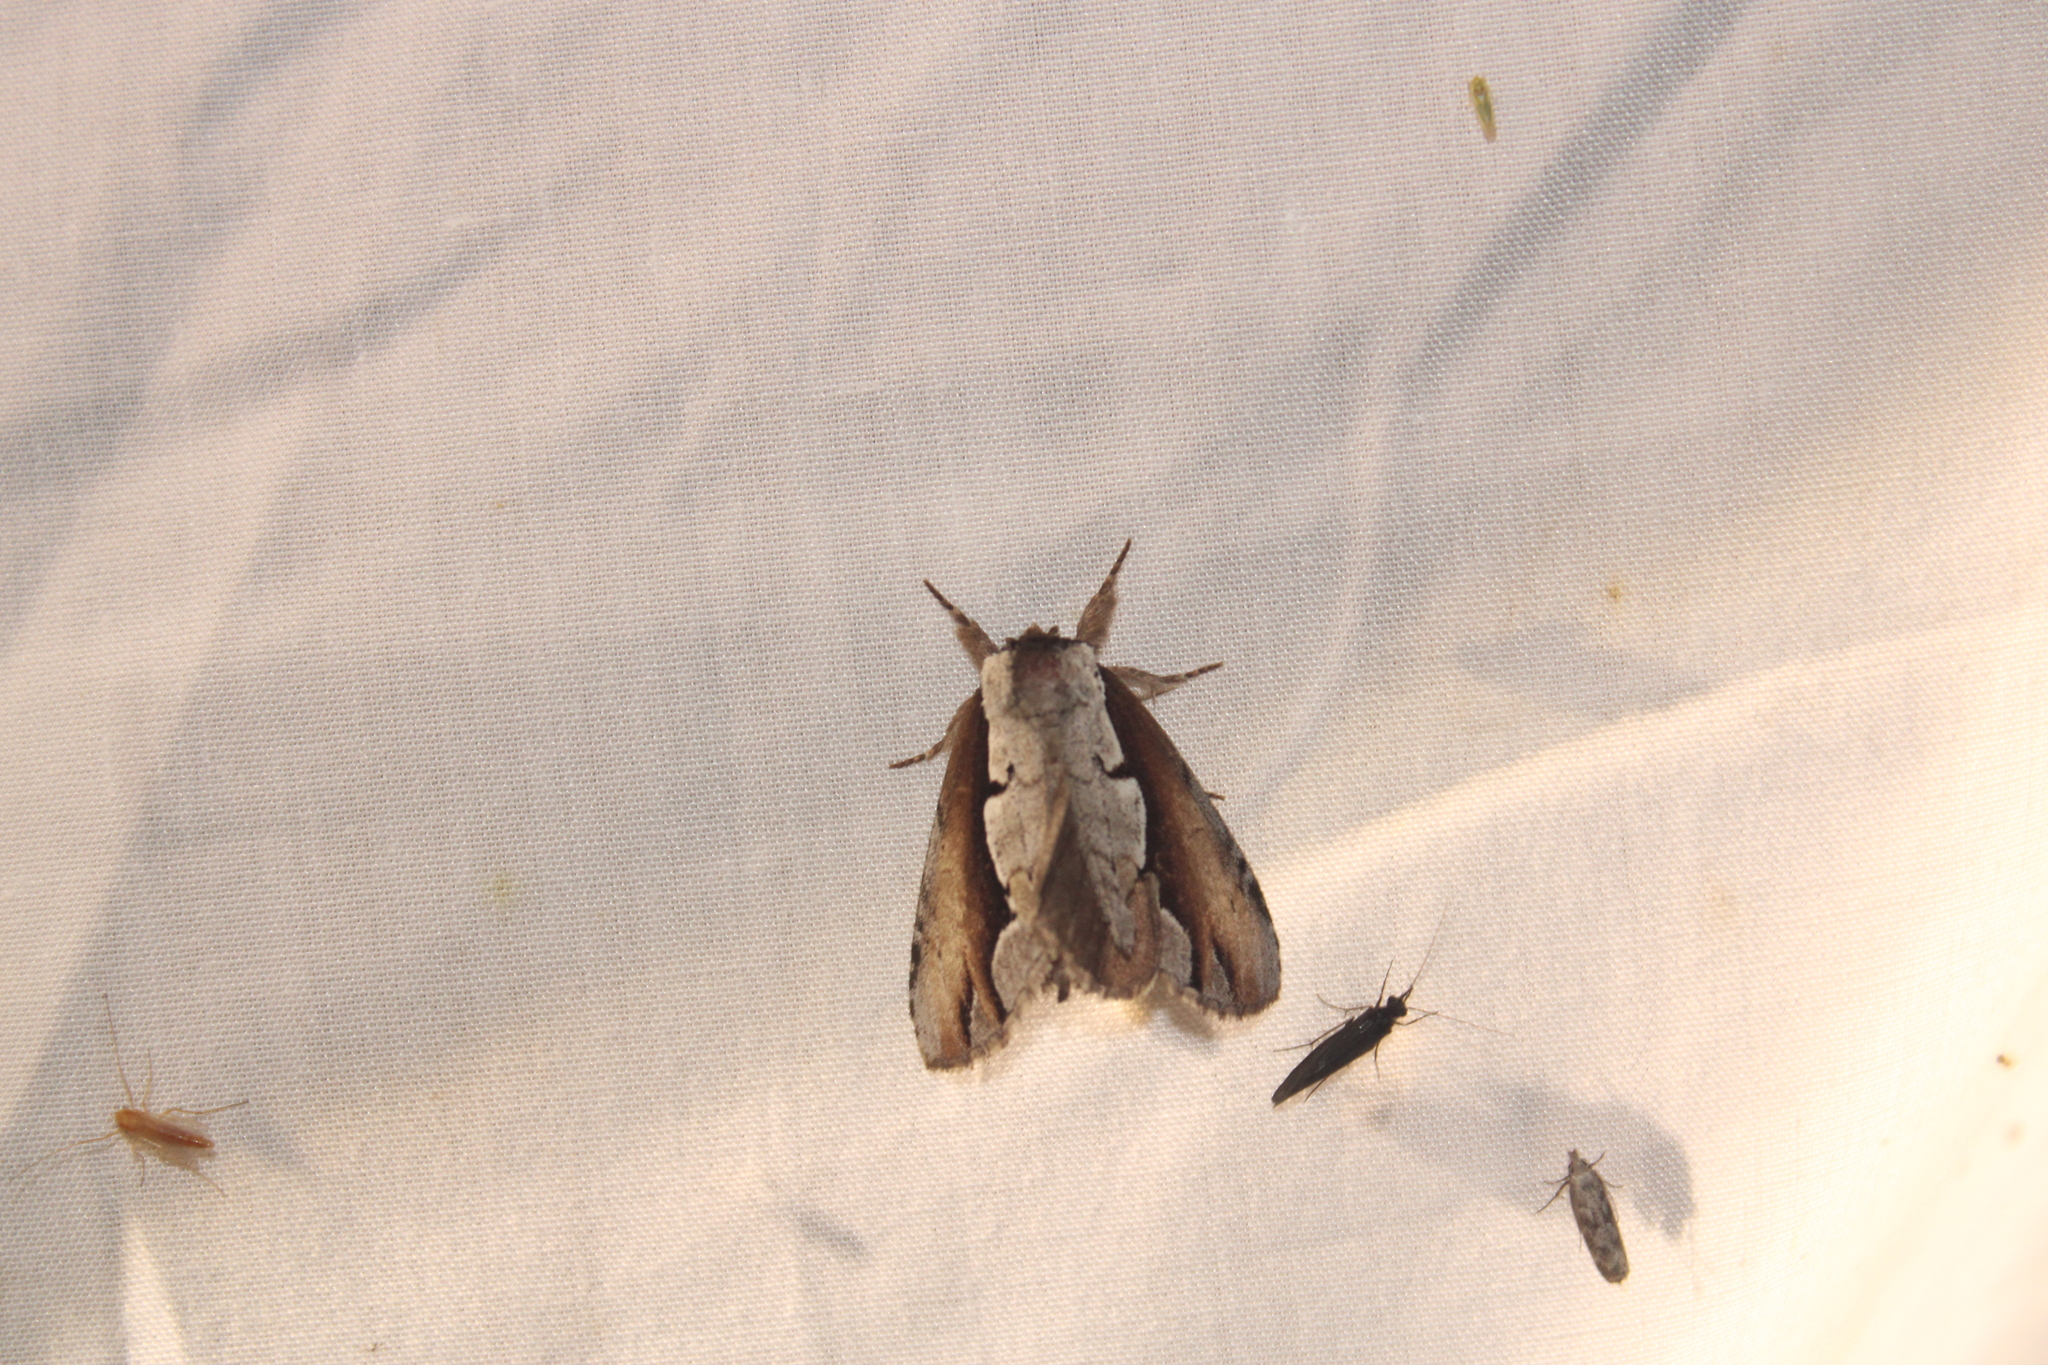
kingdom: Animalia
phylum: Arthropoda
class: Insecta
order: Lepidoptera
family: Notodontidae
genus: Nerice
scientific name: Nerice bidentata
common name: Double-toothed prominent
